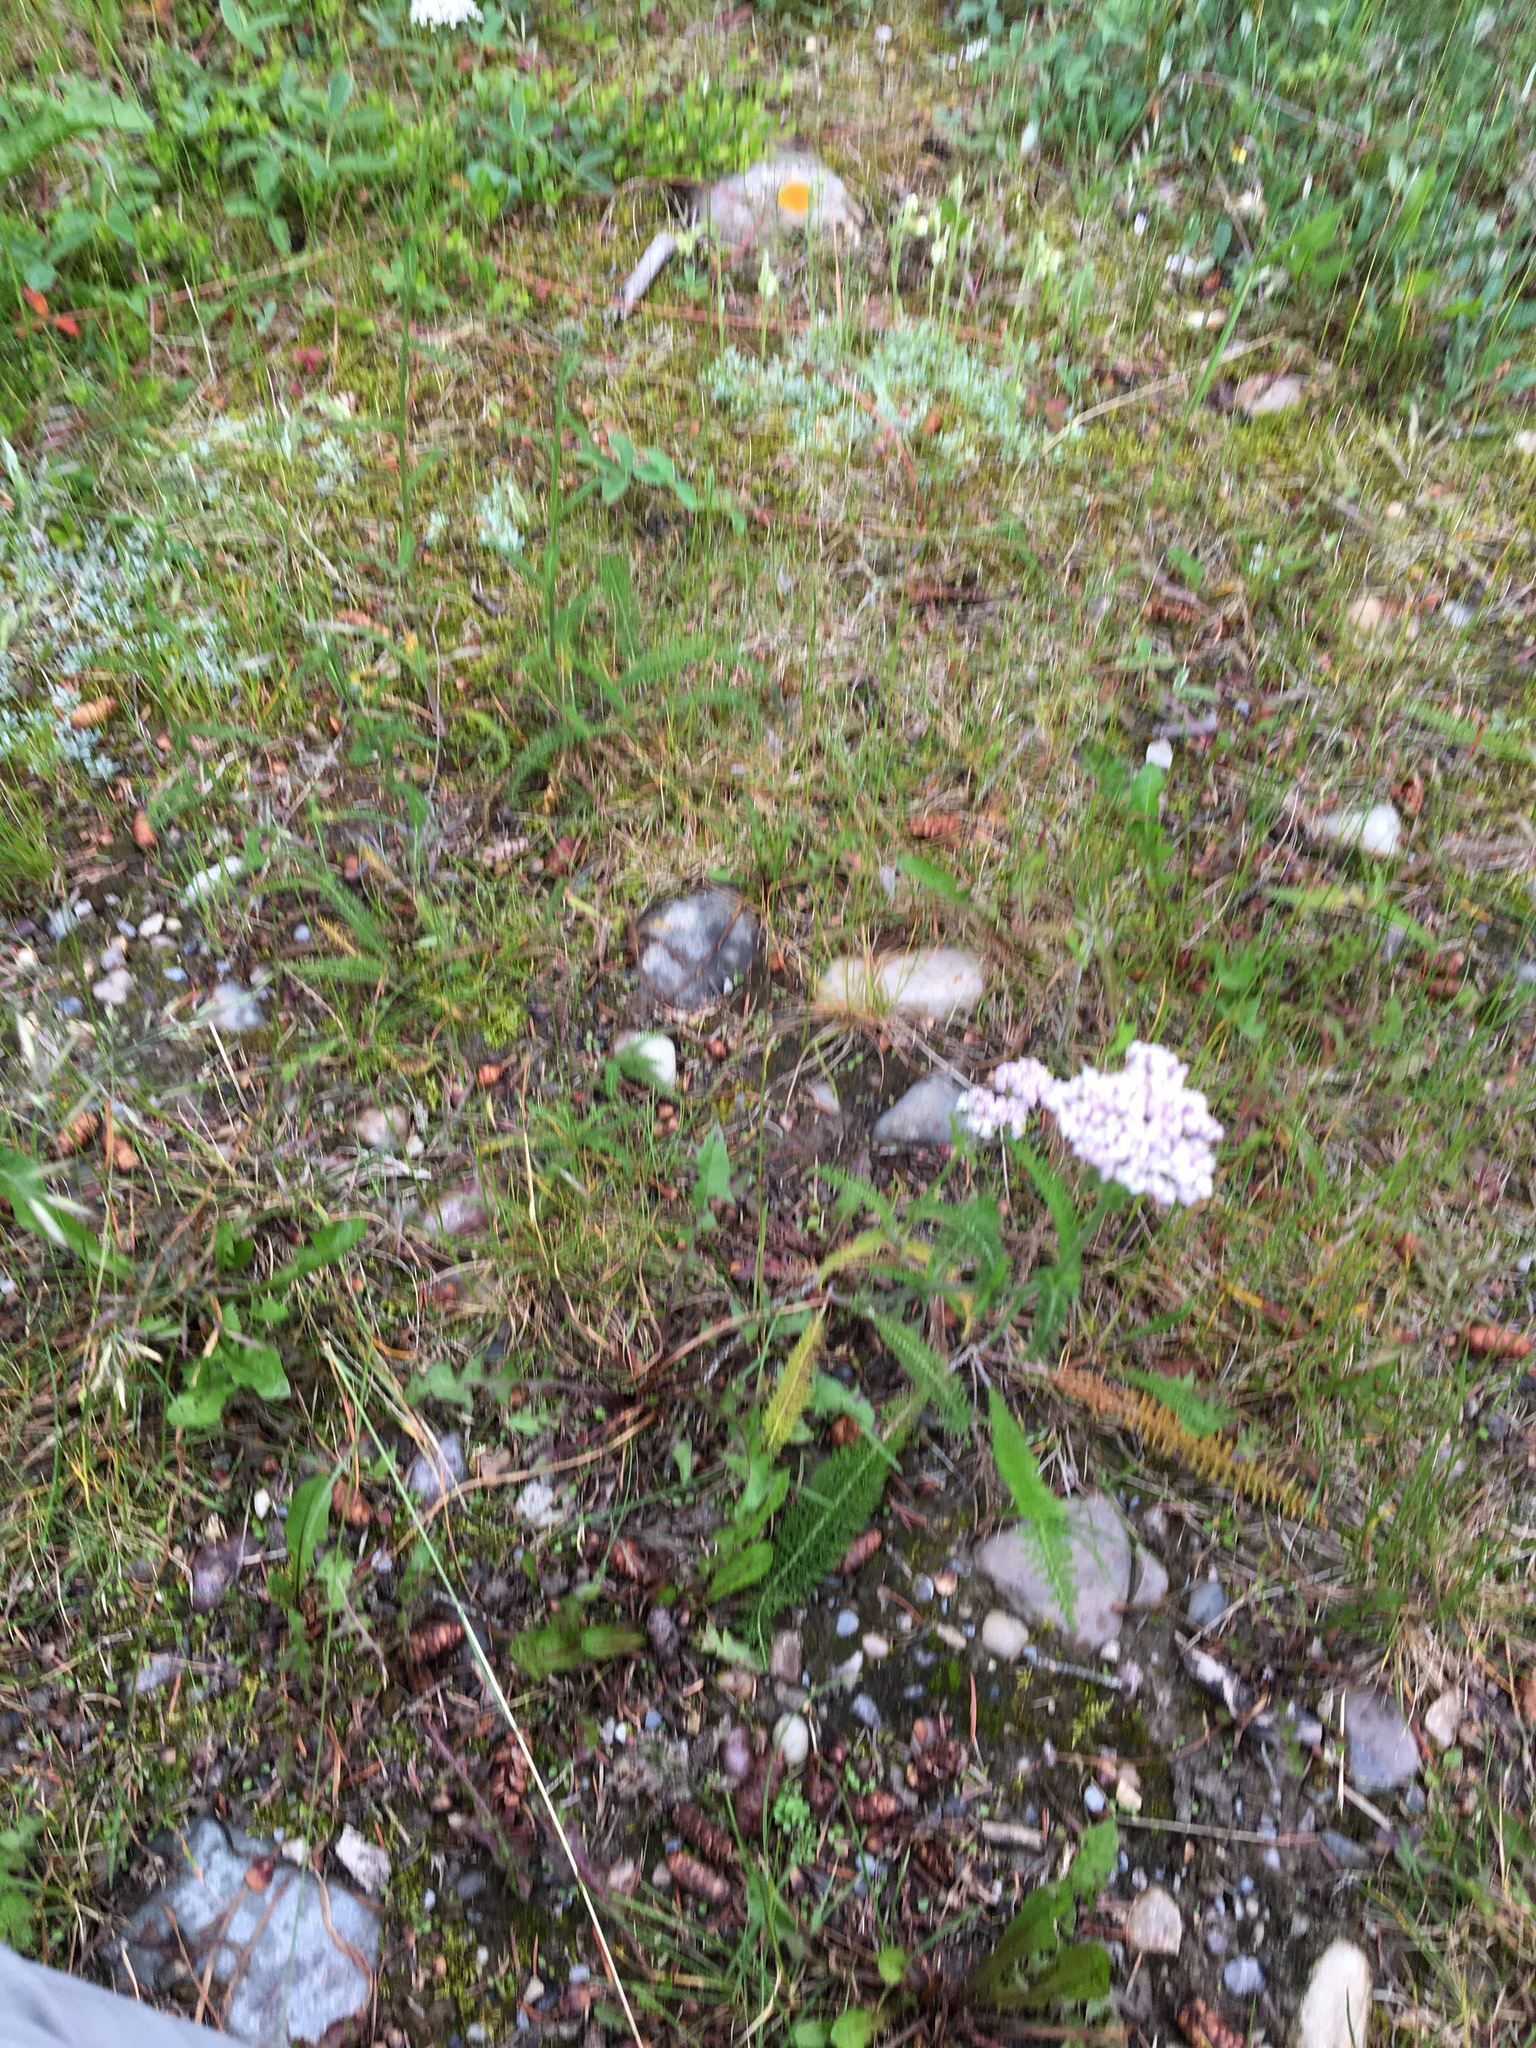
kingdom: Plantae
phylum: Tracheophyta
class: Magnoliopsida
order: Asterales
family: Asteraceae
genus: Achillea
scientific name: Achillea millefolium
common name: Yarrow
